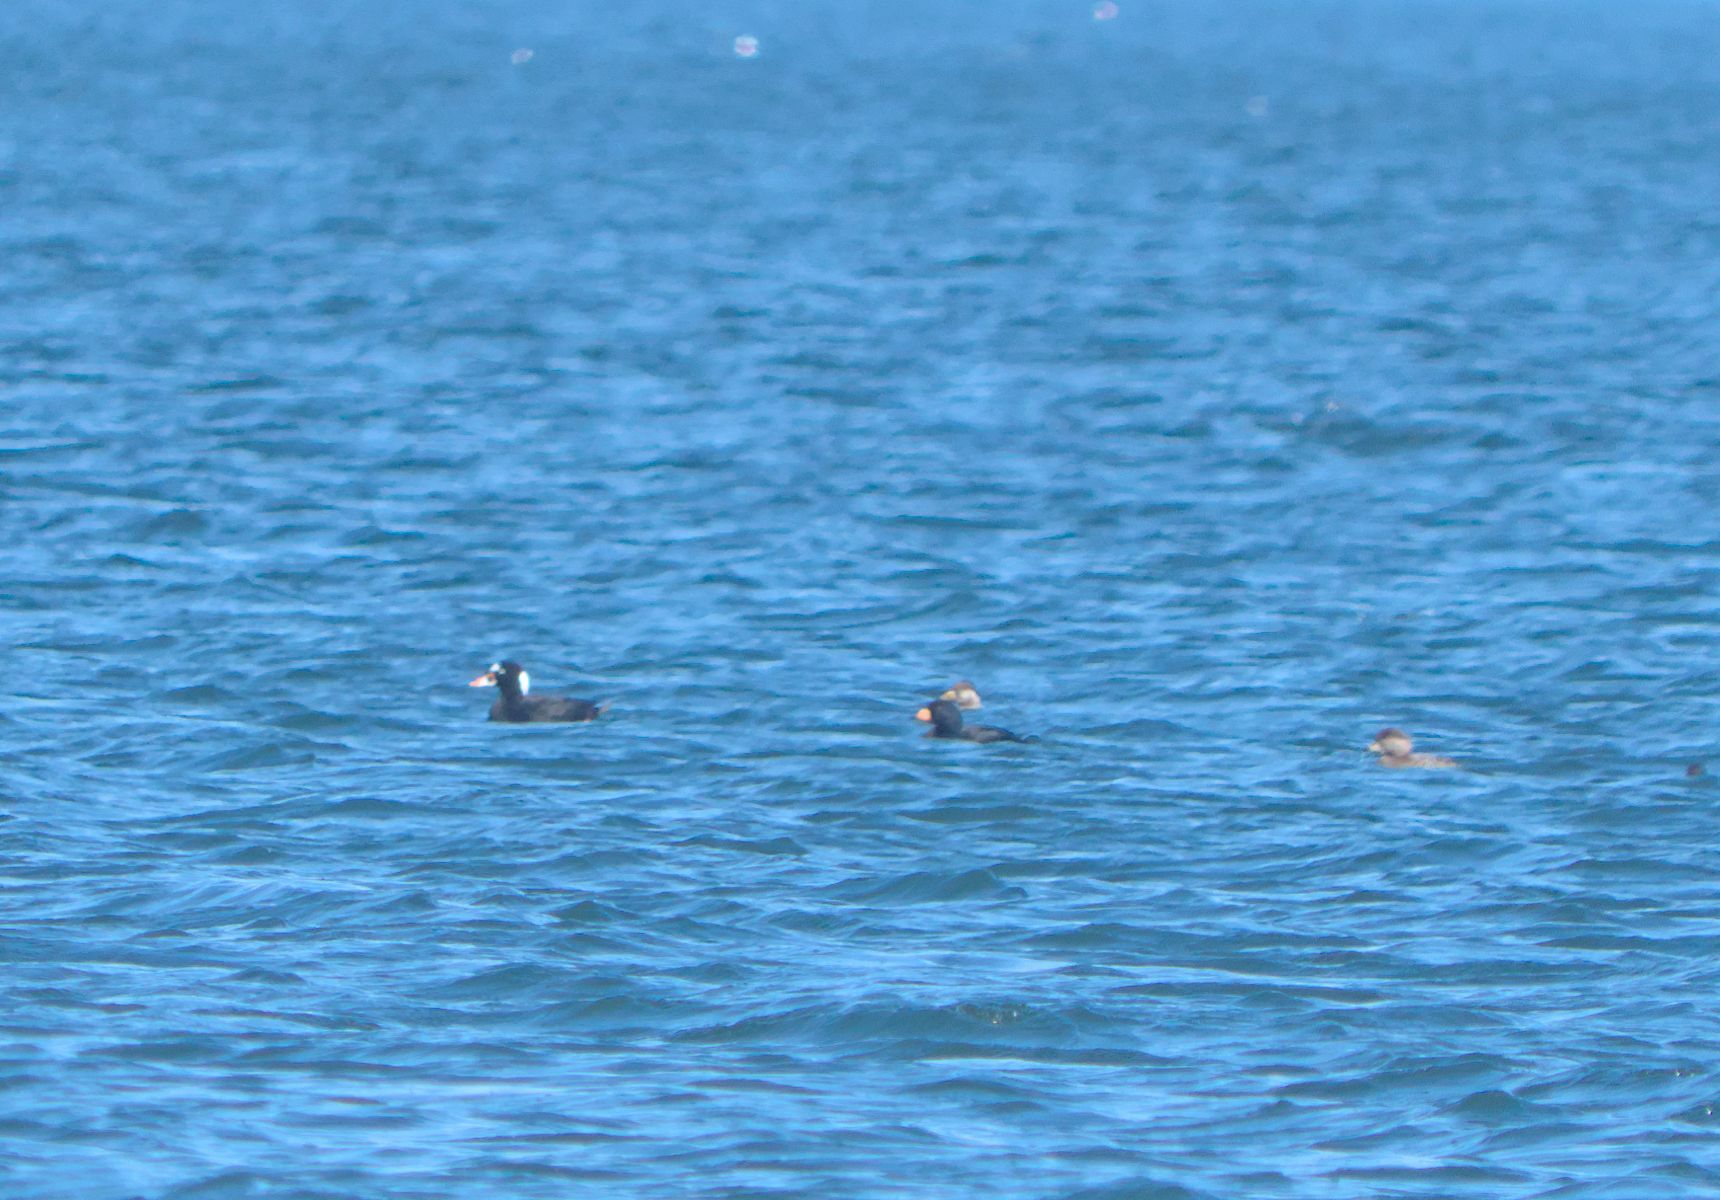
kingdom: Animalia
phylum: Chordata
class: Aves
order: Anseriformes
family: Anatidae
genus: Melanitta
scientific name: Melanitta perspicillata
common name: Surf scoter
